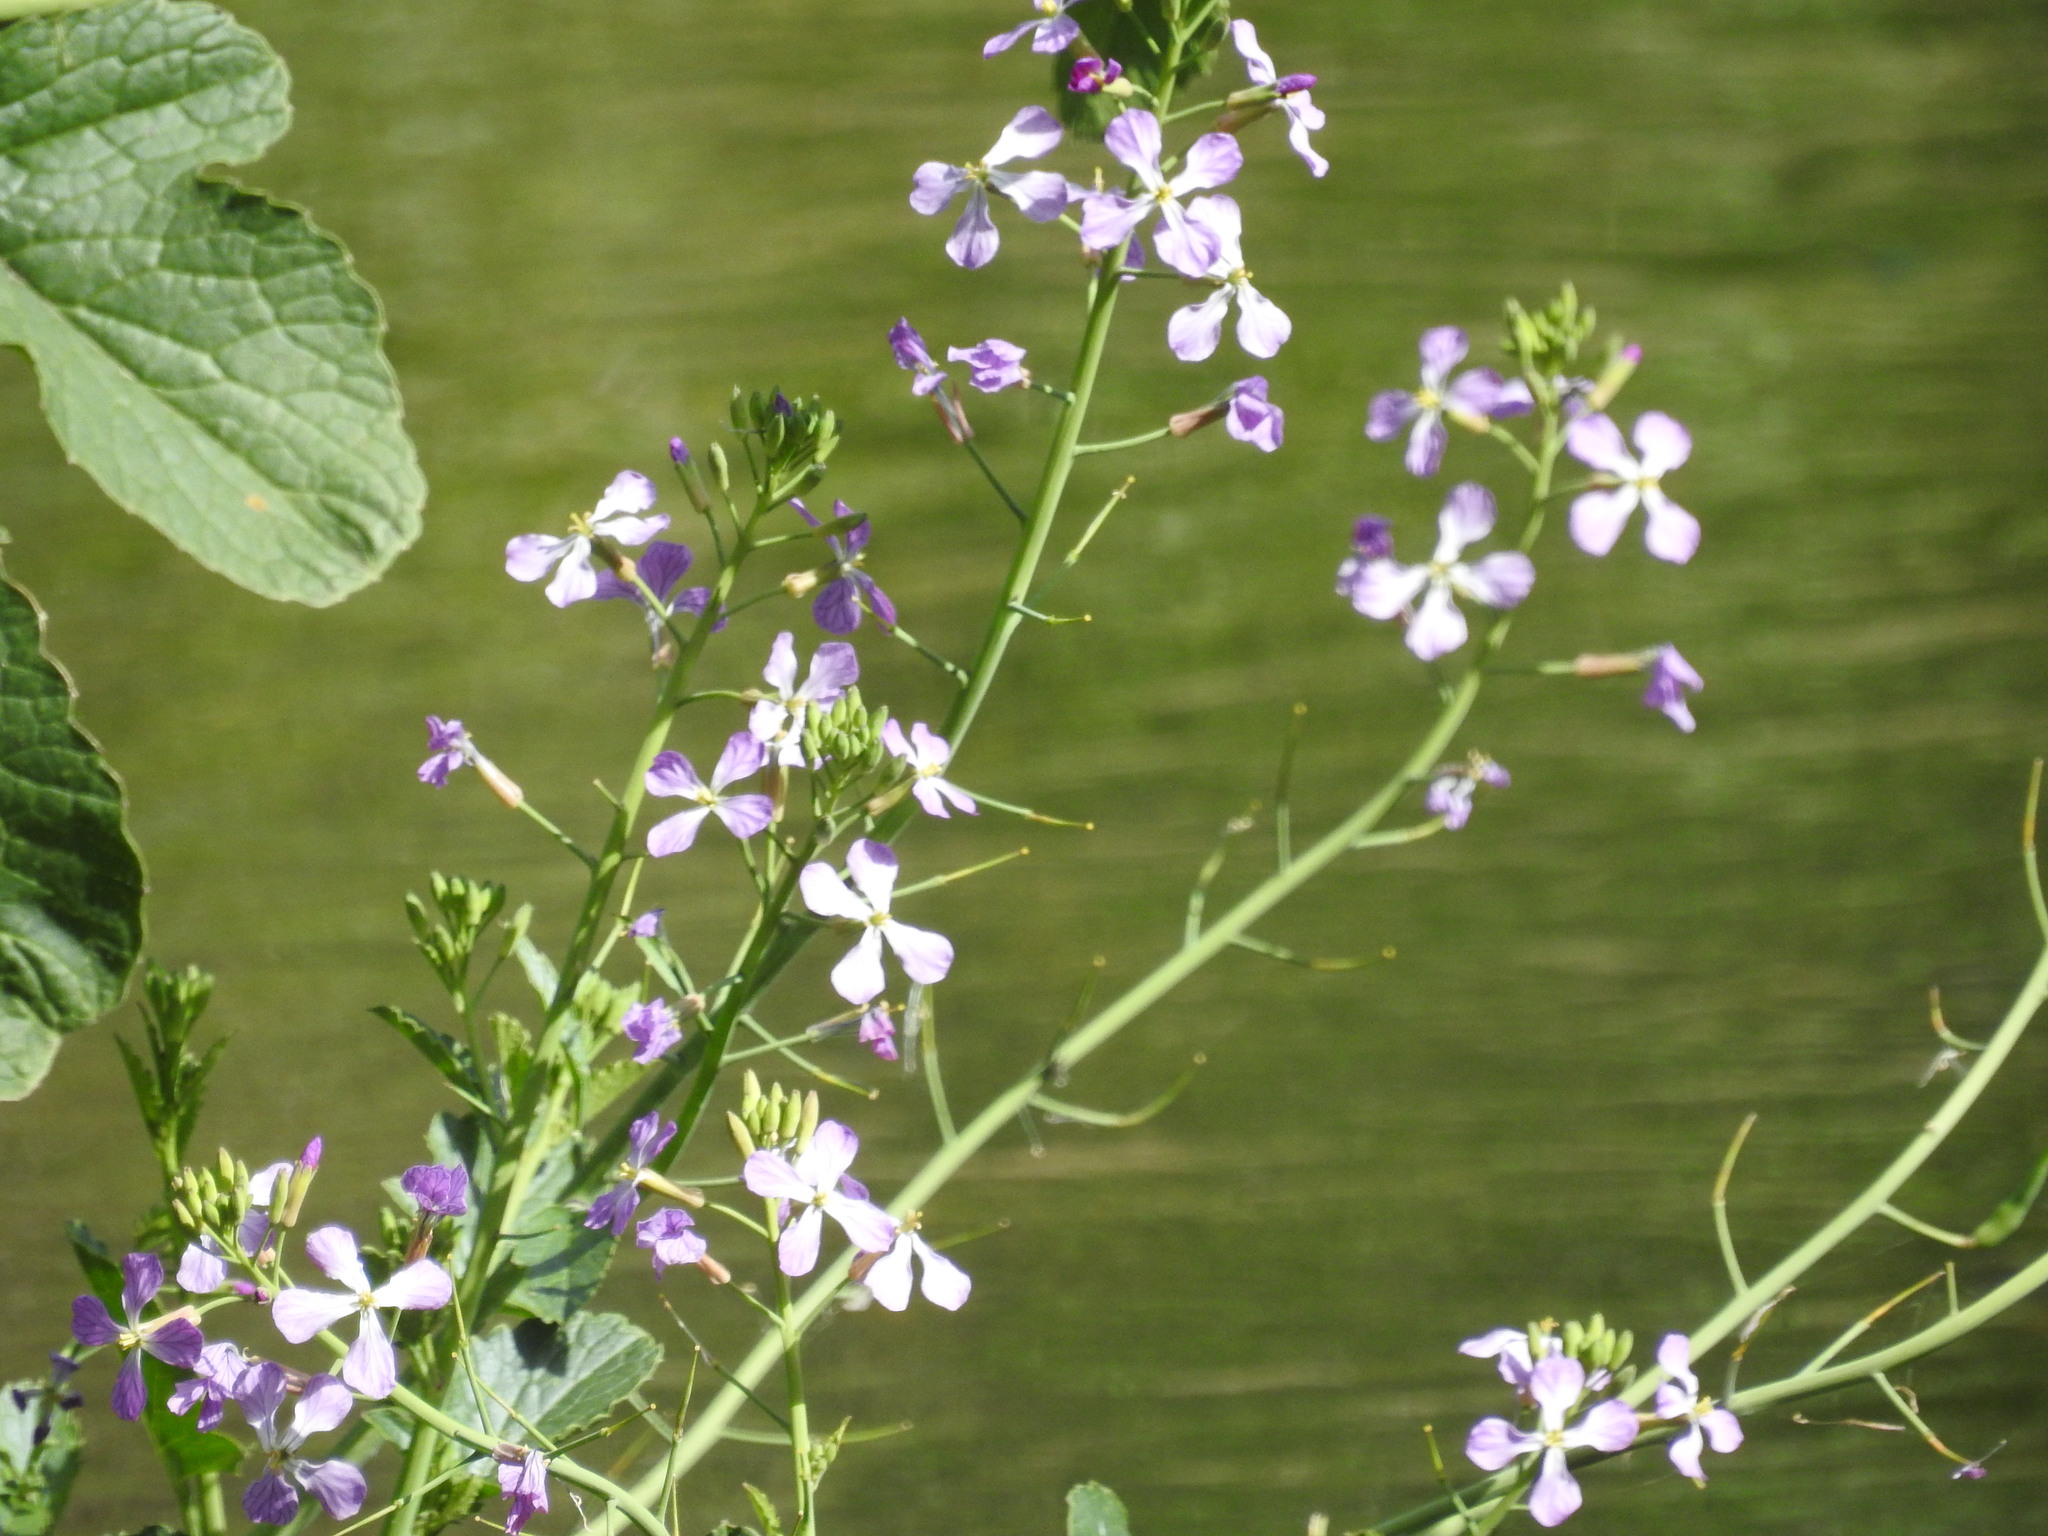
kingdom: Plantae
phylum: Tracheophyta
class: Magnoliopsida
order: Brassicales
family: Brassicaceae
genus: Raphanus
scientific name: Raphanus sativus
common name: Cultivated radish
